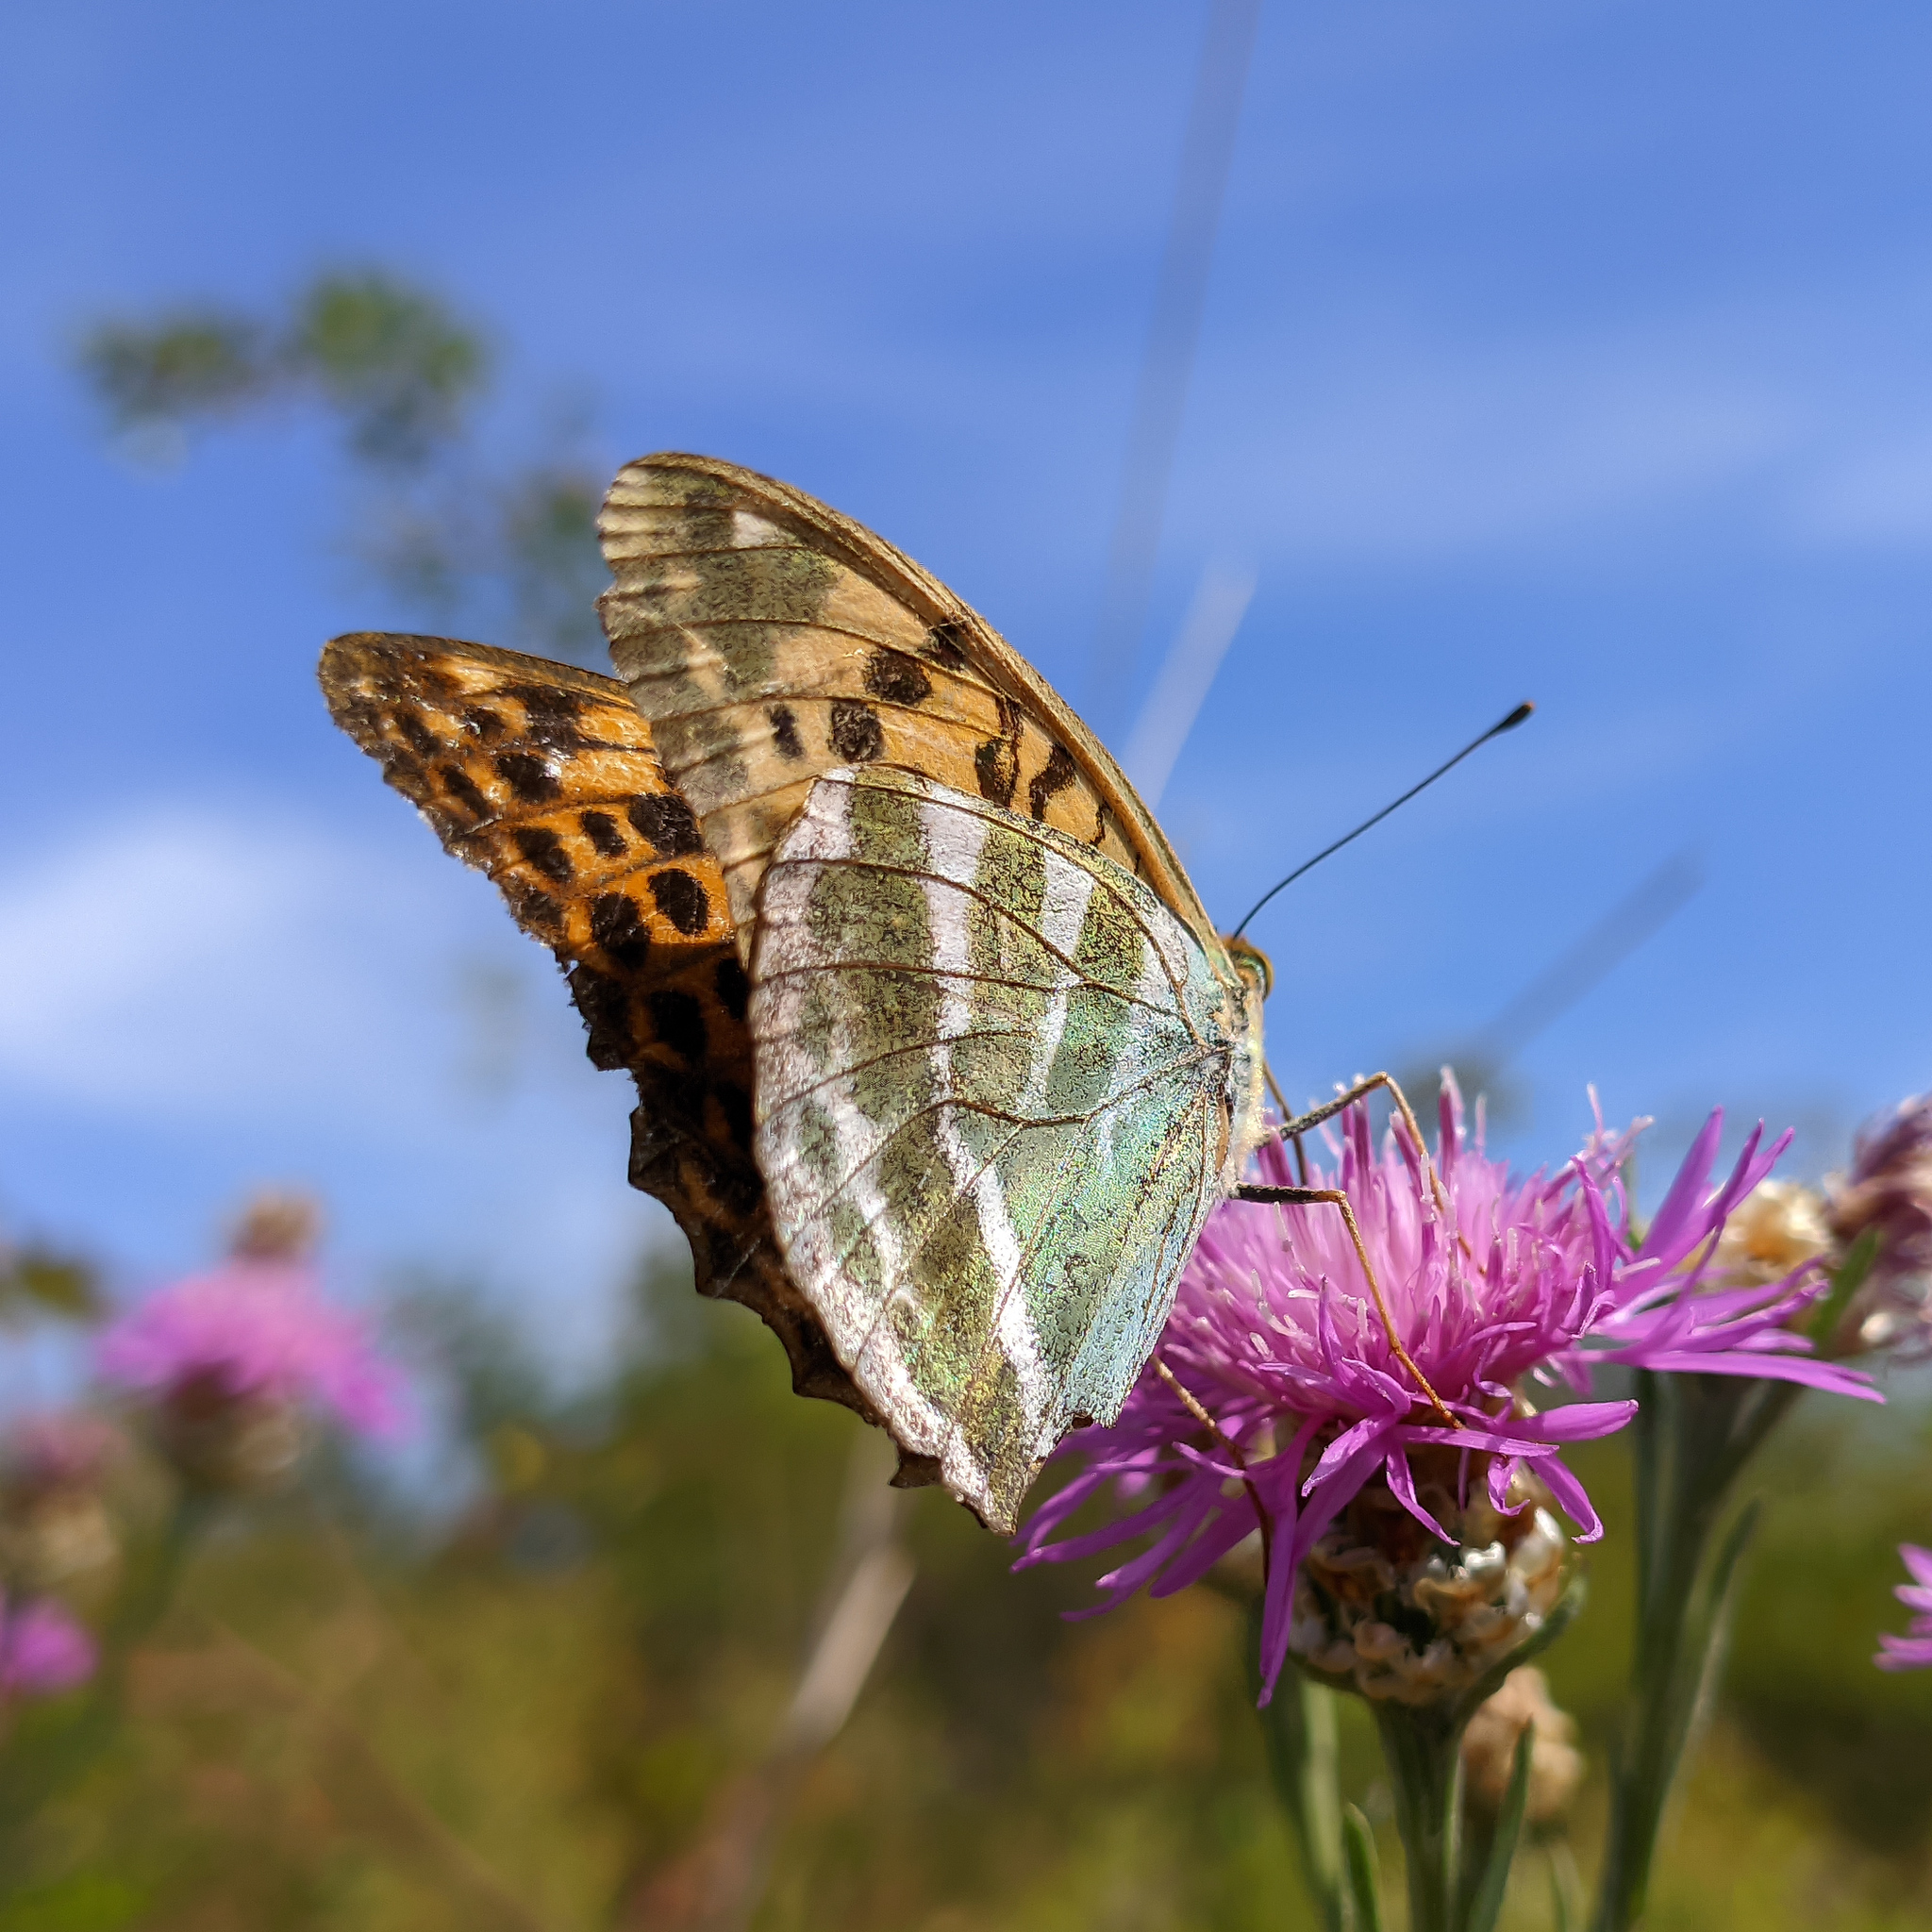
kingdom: Animalia
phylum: Arthropoda
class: Insecta
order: Lepidoptera
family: Nymphalidae
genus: Argynnis
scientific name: Argynnis paphia
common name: Silver-washed fritillary
